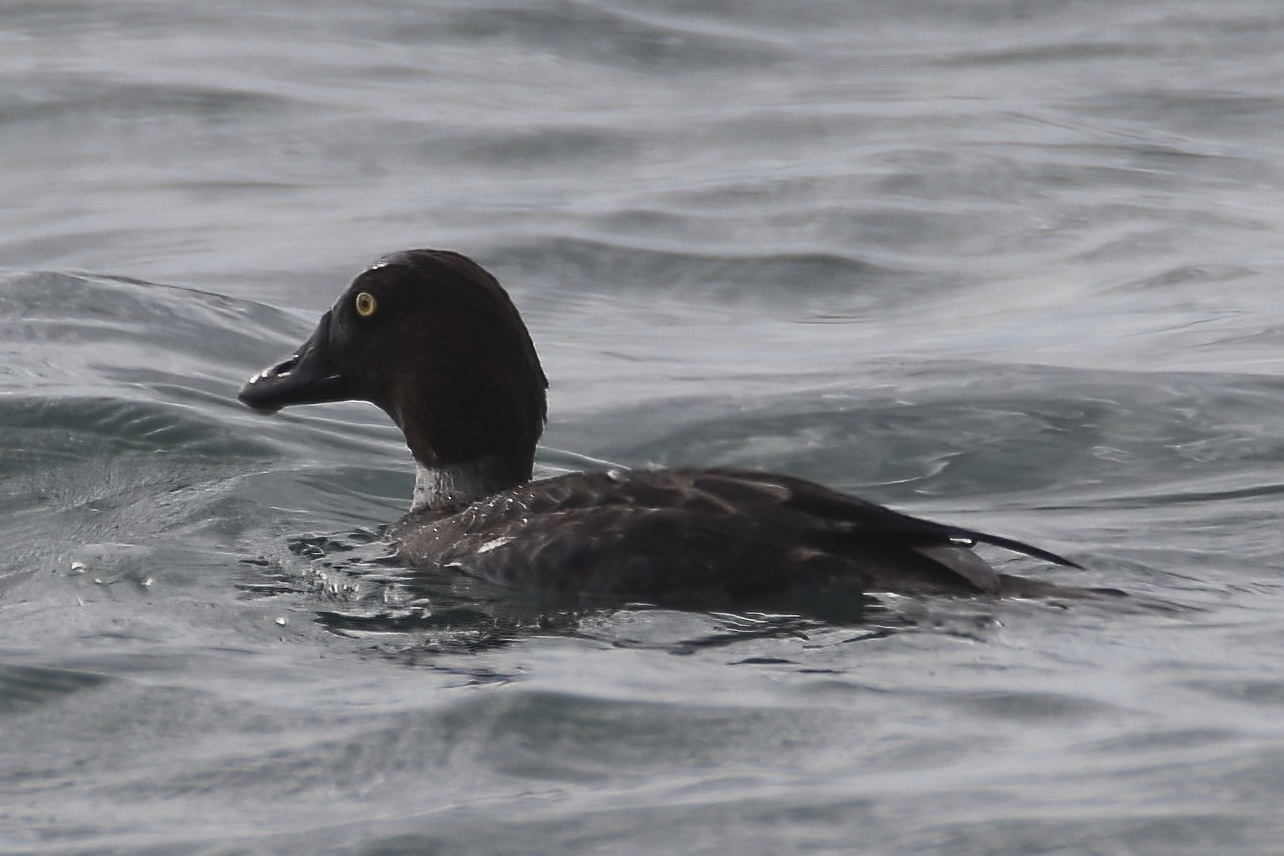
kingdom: Animalia
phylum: Chordata
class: Aves
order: Anseriformes
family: Anatidae
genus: Bucephala
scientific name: Bucephala clangula
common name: Common goldeneye
